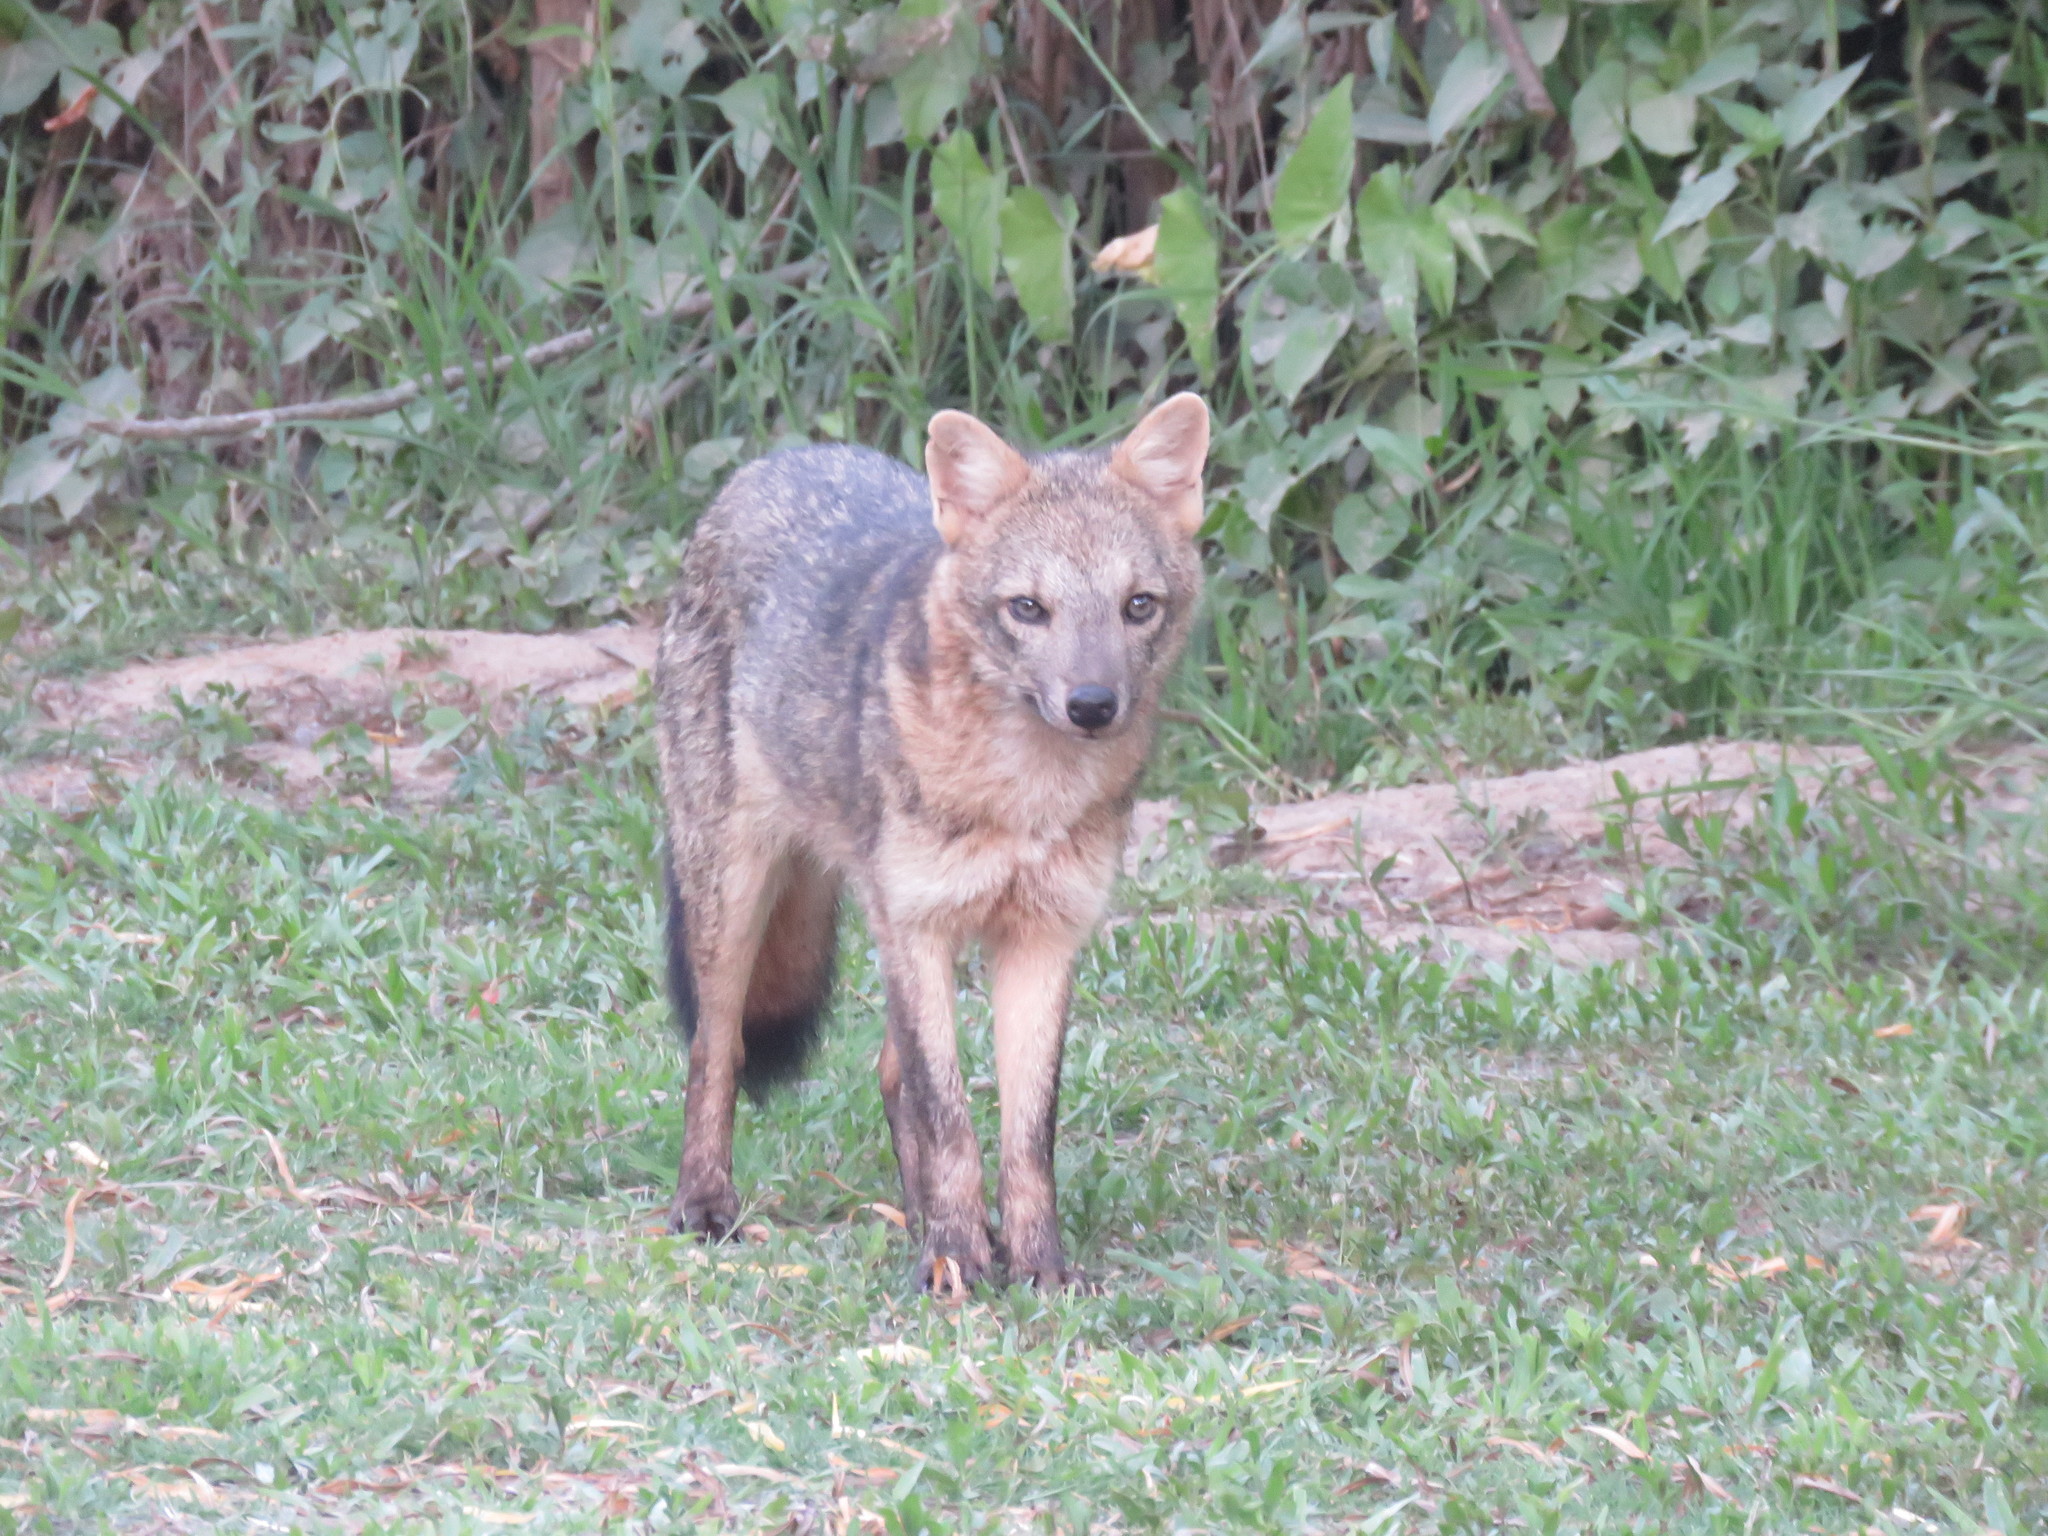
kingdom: Animalia
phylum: Chordata
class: Mammalia
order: Carnivora
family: Canidae
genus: Cerdocyon
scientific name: Cerdocyon thous
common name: Crab-eating fox
